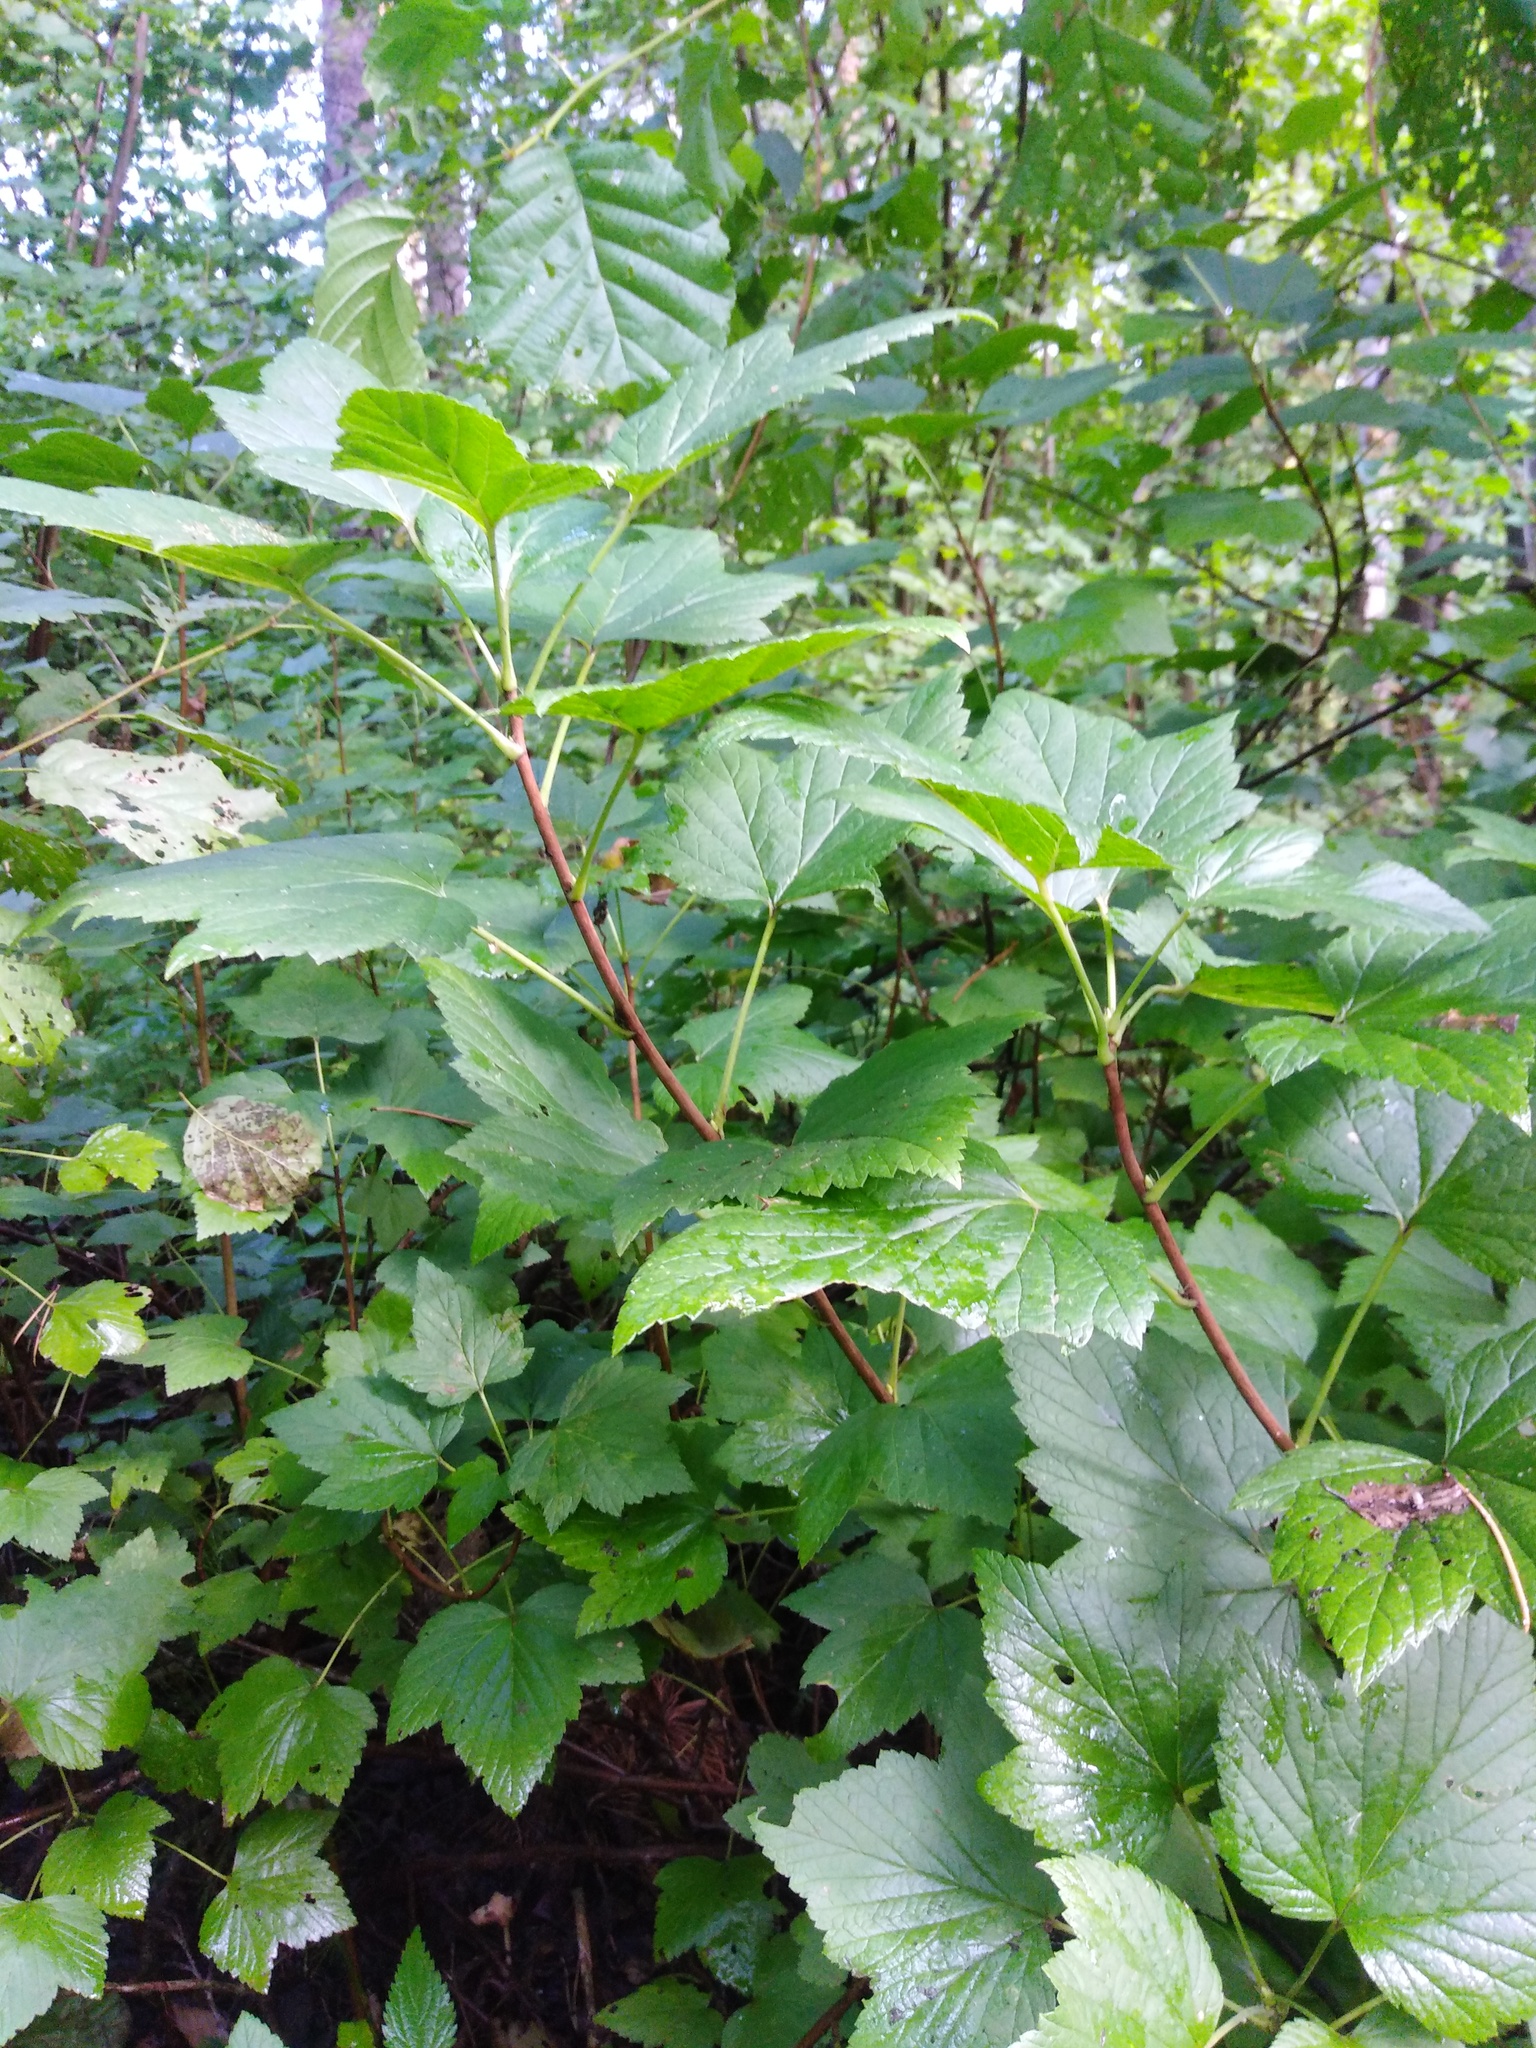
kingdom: Plantae
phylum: Tracheophyta
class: Magnoliopsida
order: Saxifragales
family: Grossulariaceae
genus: Ribes
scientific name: Ribes nigrum
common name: Black currant
